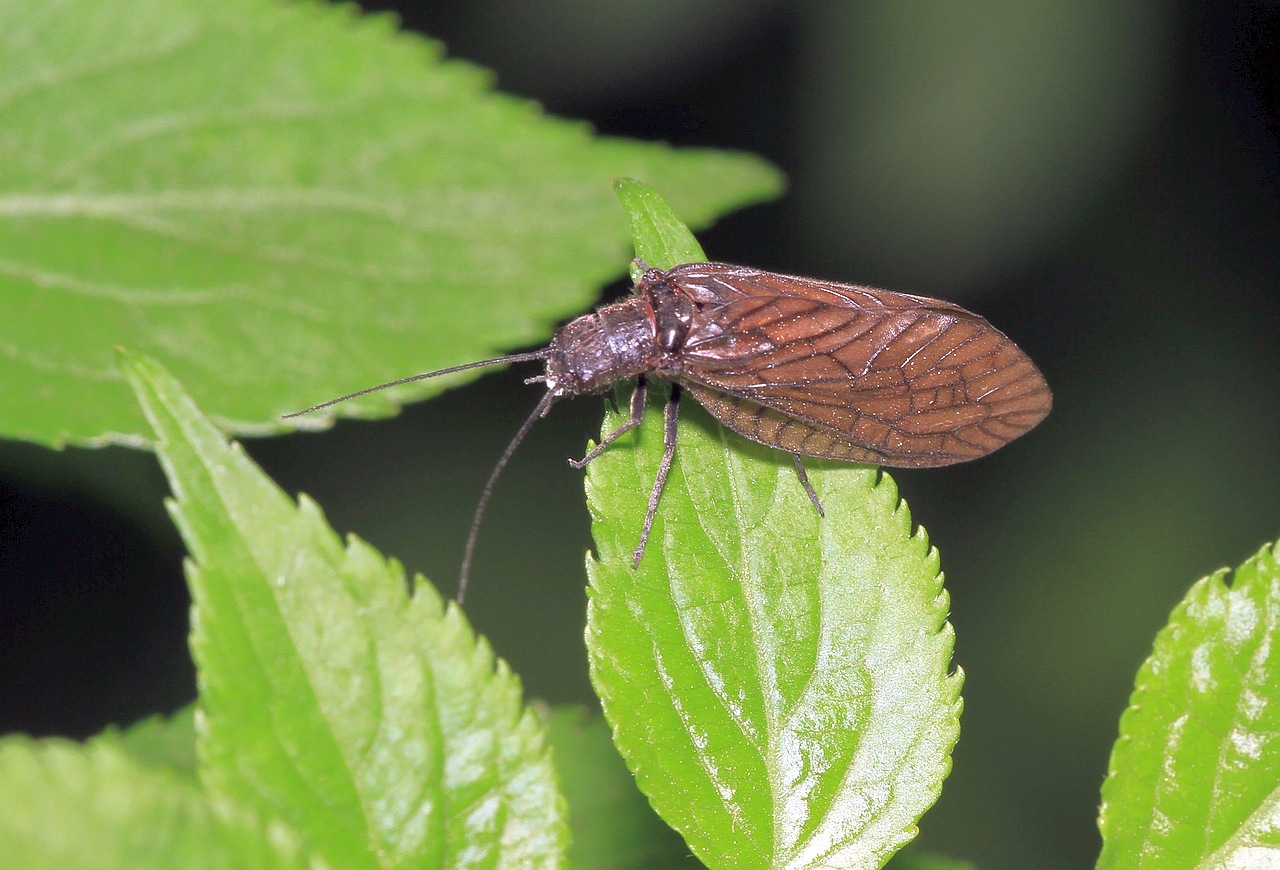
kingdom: Animalia
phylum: Arthropoda
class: Insecta
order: Megaloptera
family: Sialidae
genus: Sialis
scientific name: Sialis
